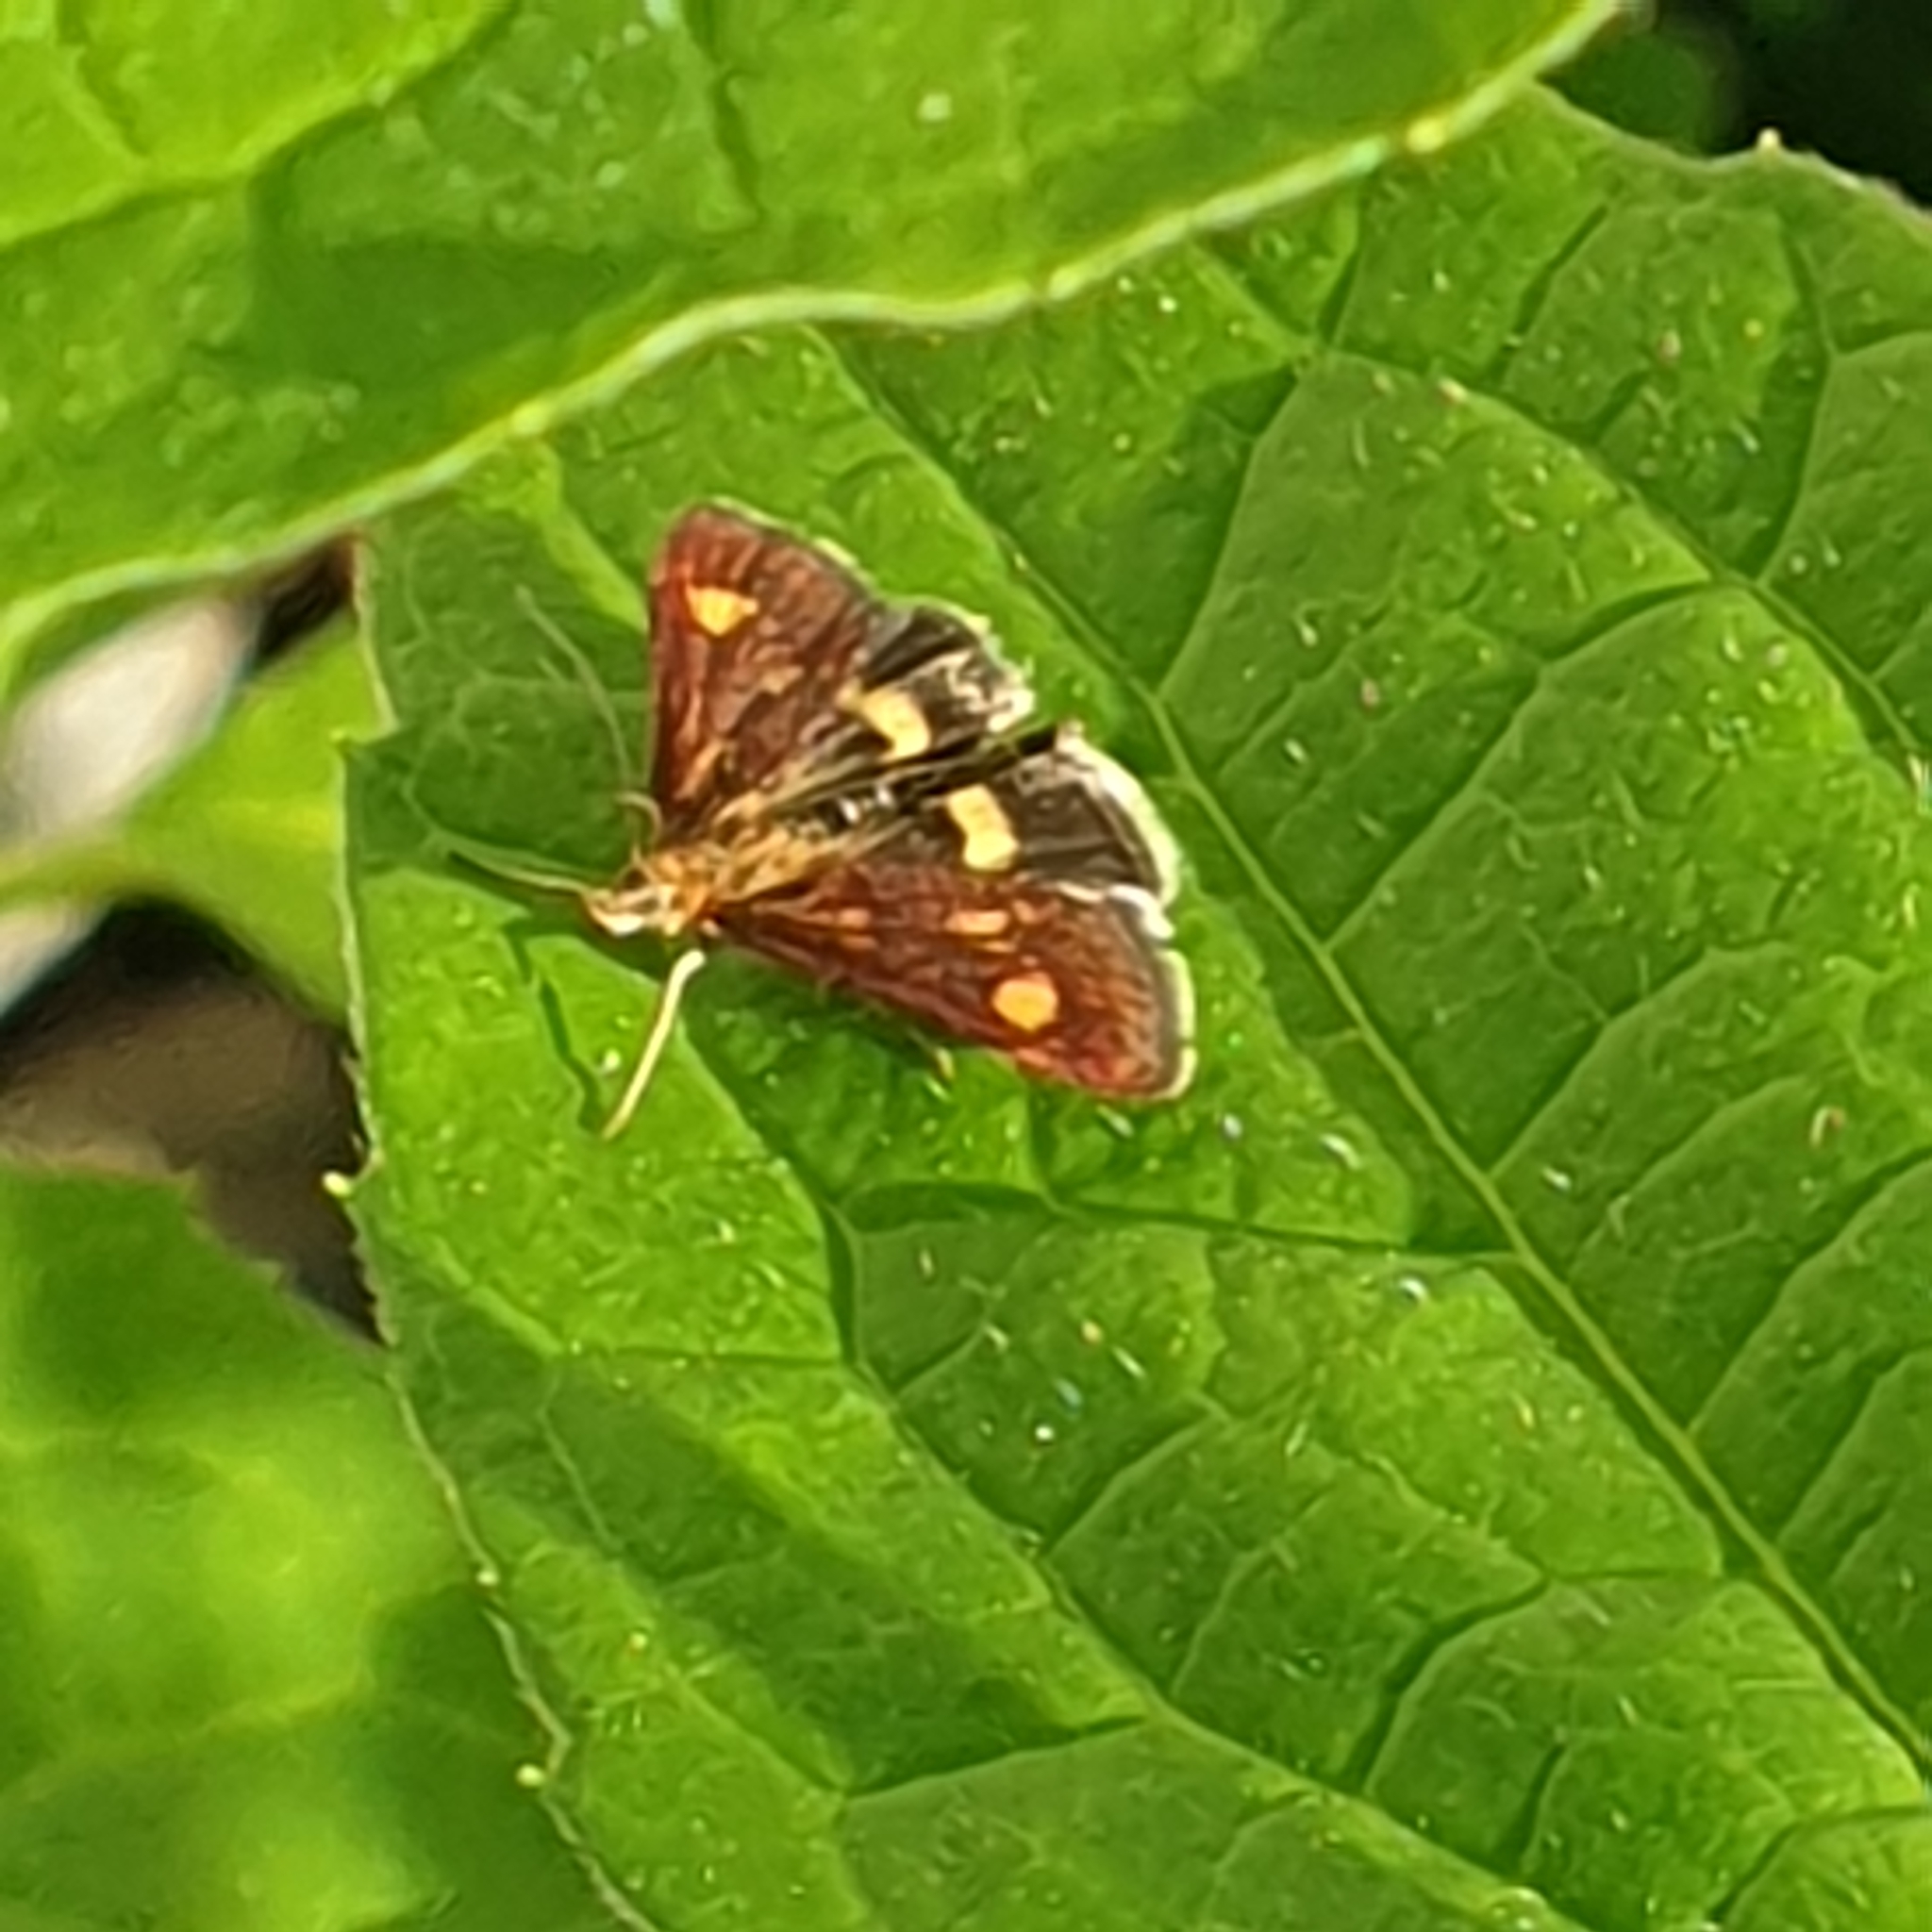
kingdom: Animalia
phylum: Arthropoda
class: Insecta
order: Lepidoptera
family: Crambidae
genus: Pyrausta
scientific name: Pyrausta aurata
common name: Small purple & gold
